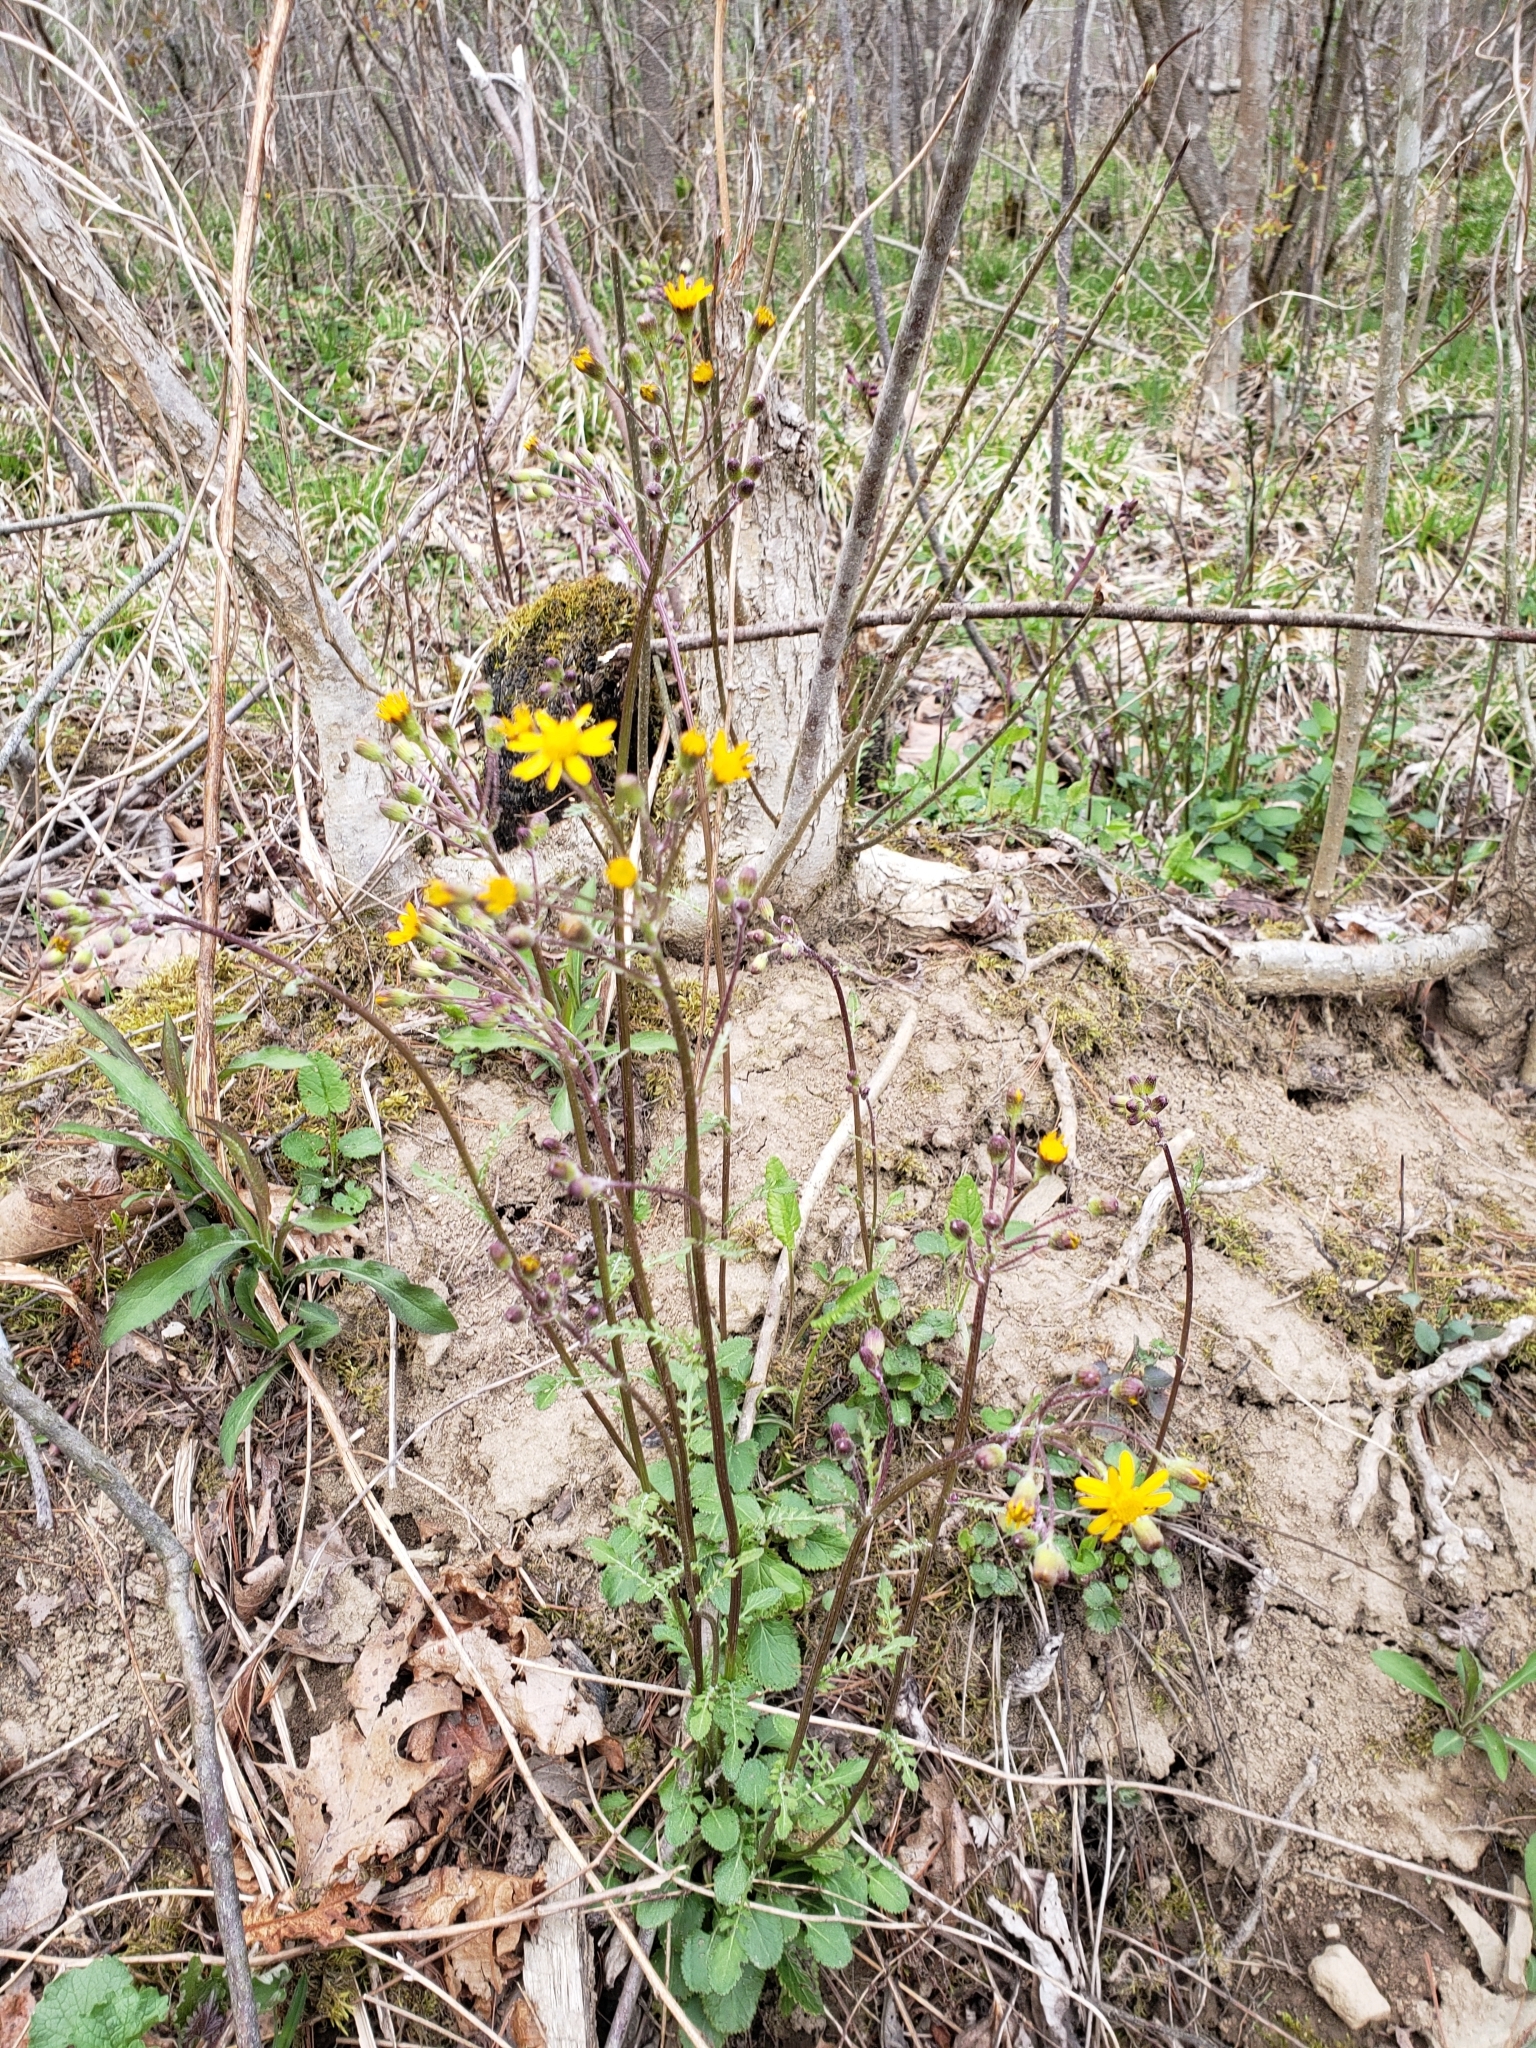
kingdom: Plantae
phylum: Tracheophyta
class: Magnoliopsida
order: Asterales
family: Asteraceae
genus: Packera
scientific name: Packera aurea
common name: Golden groundsel
